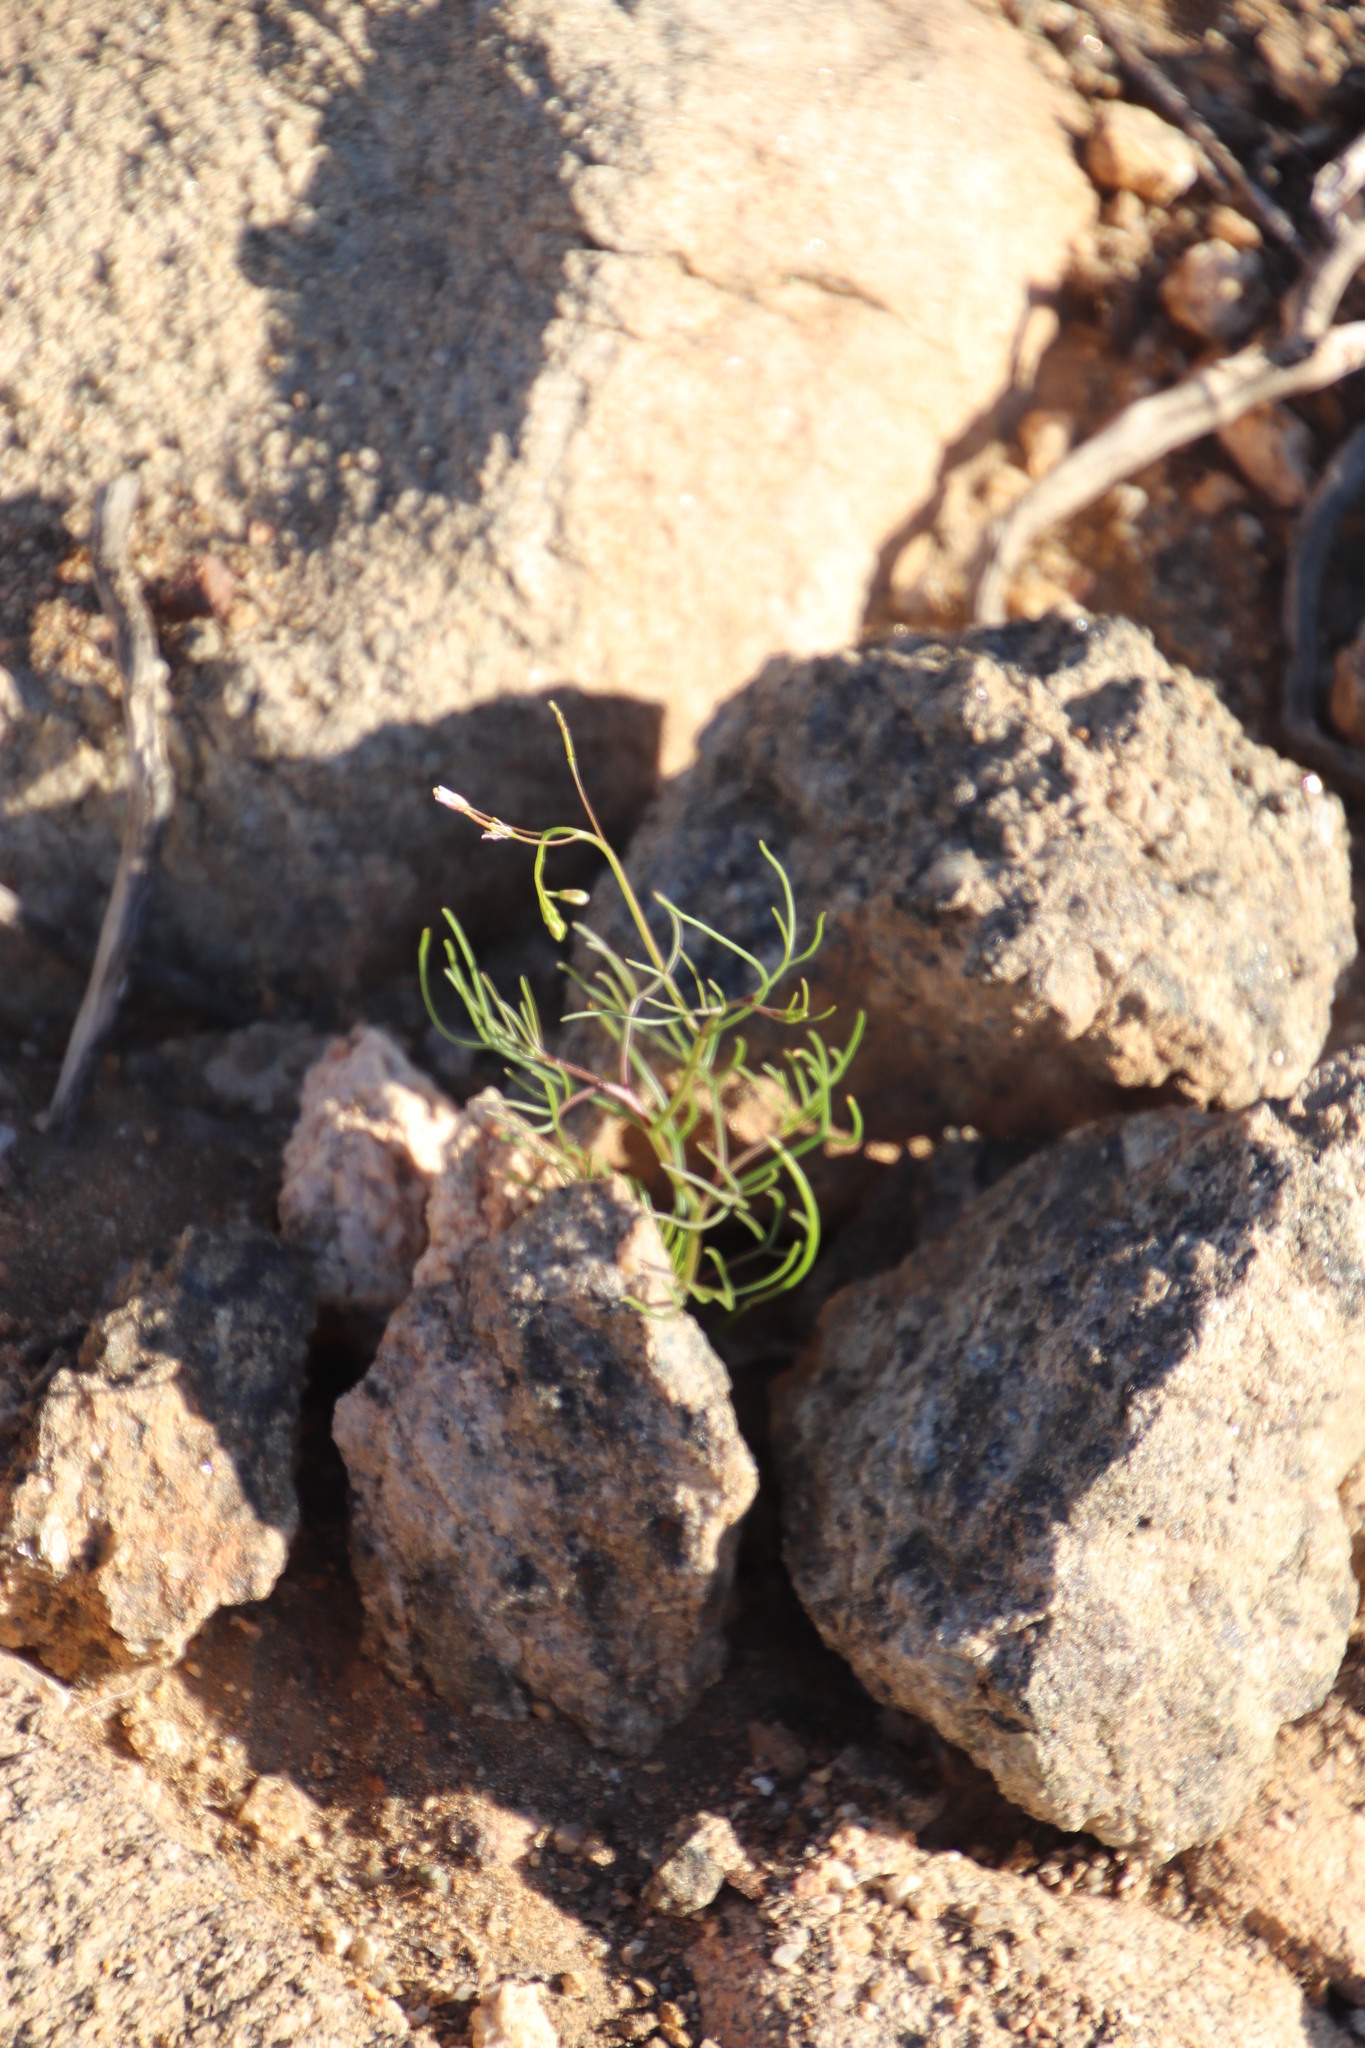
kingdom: Plantae
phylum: Tracheophyta
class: Magnoliopsida
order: Brassicales
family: Brassicaceae
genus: Heliophila
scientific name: Heliophila variabilis
